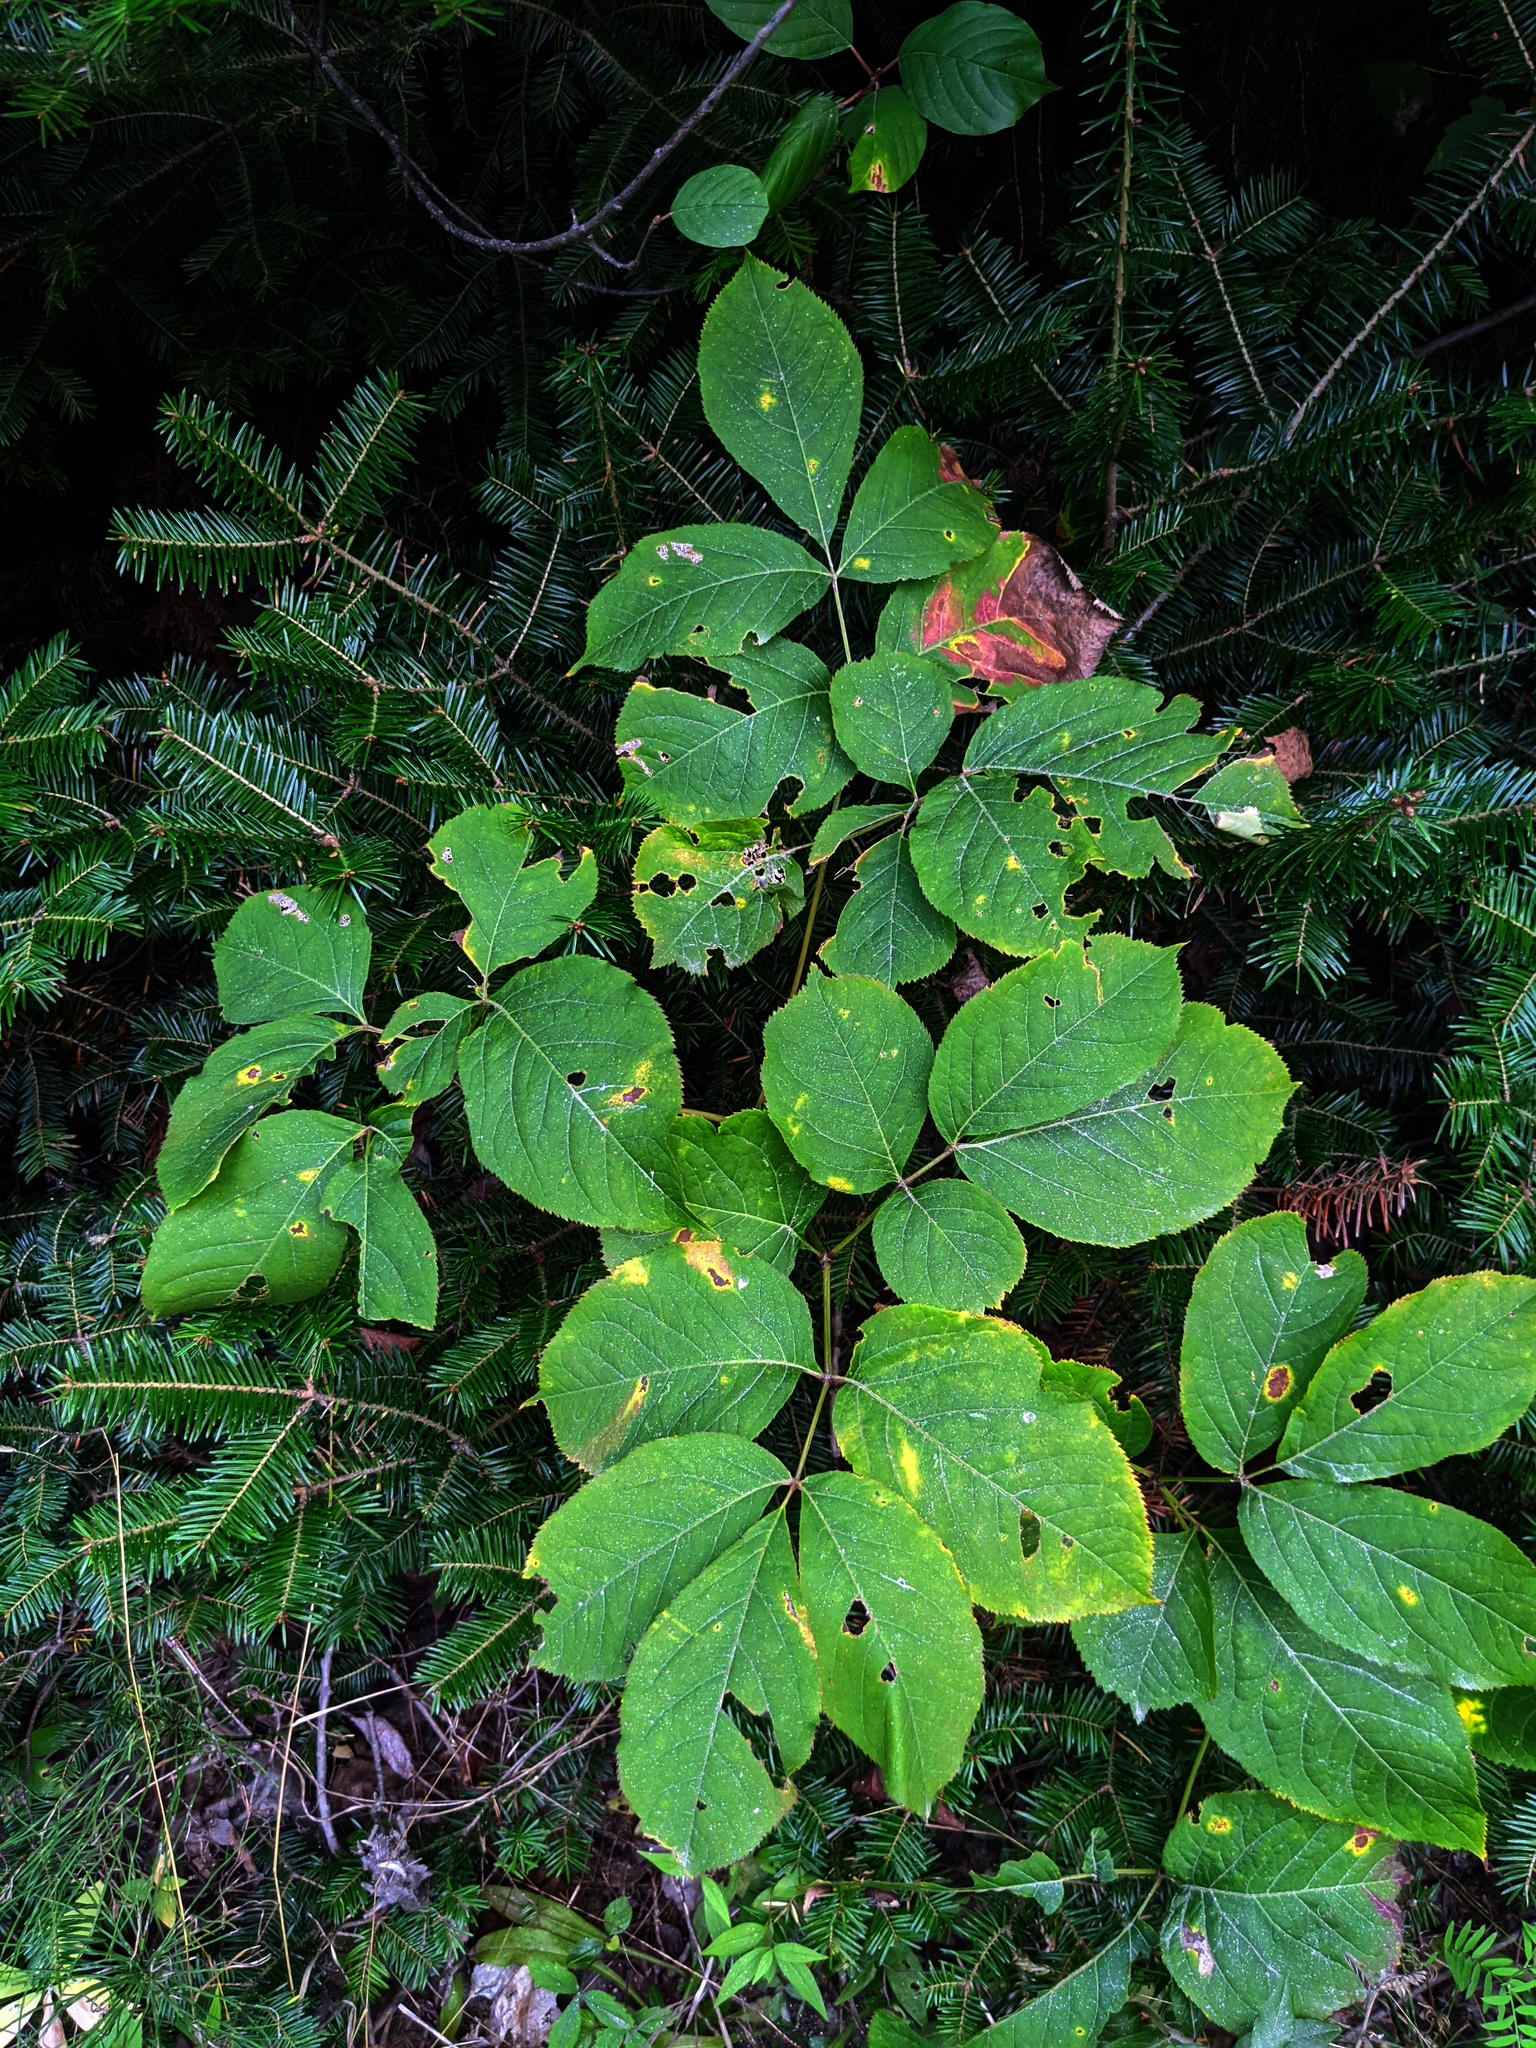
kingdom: Plantae
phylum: Tracheophyta
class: Magnoliopsida
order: Apiales
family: Araliaceae
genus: Aralia
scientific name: Aralia nudicaulis
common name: Wild sarsaparilla
